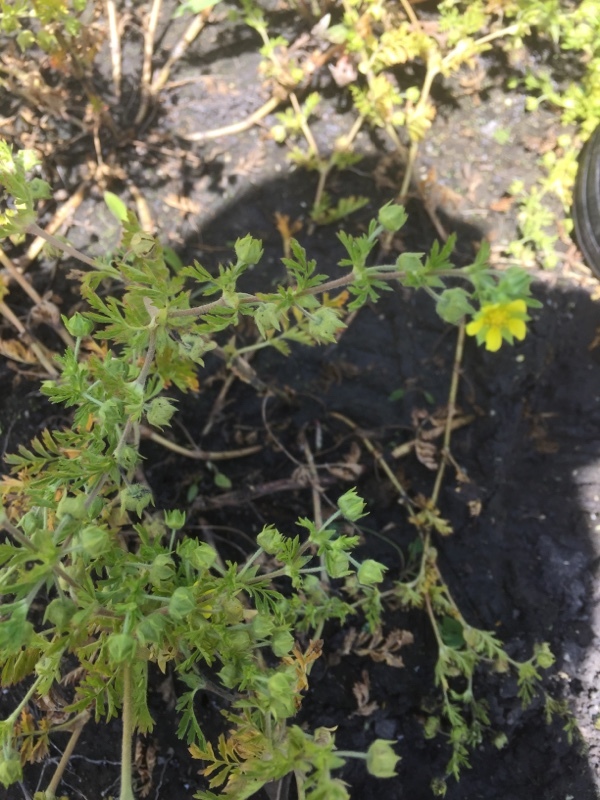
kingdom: Plantae
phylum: Tracheophyta
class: Magnoliopsida
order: Rosales
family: Rosaceae
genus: Potentilla
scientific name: Potentilla supina
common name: Prostrate cinquefoil
